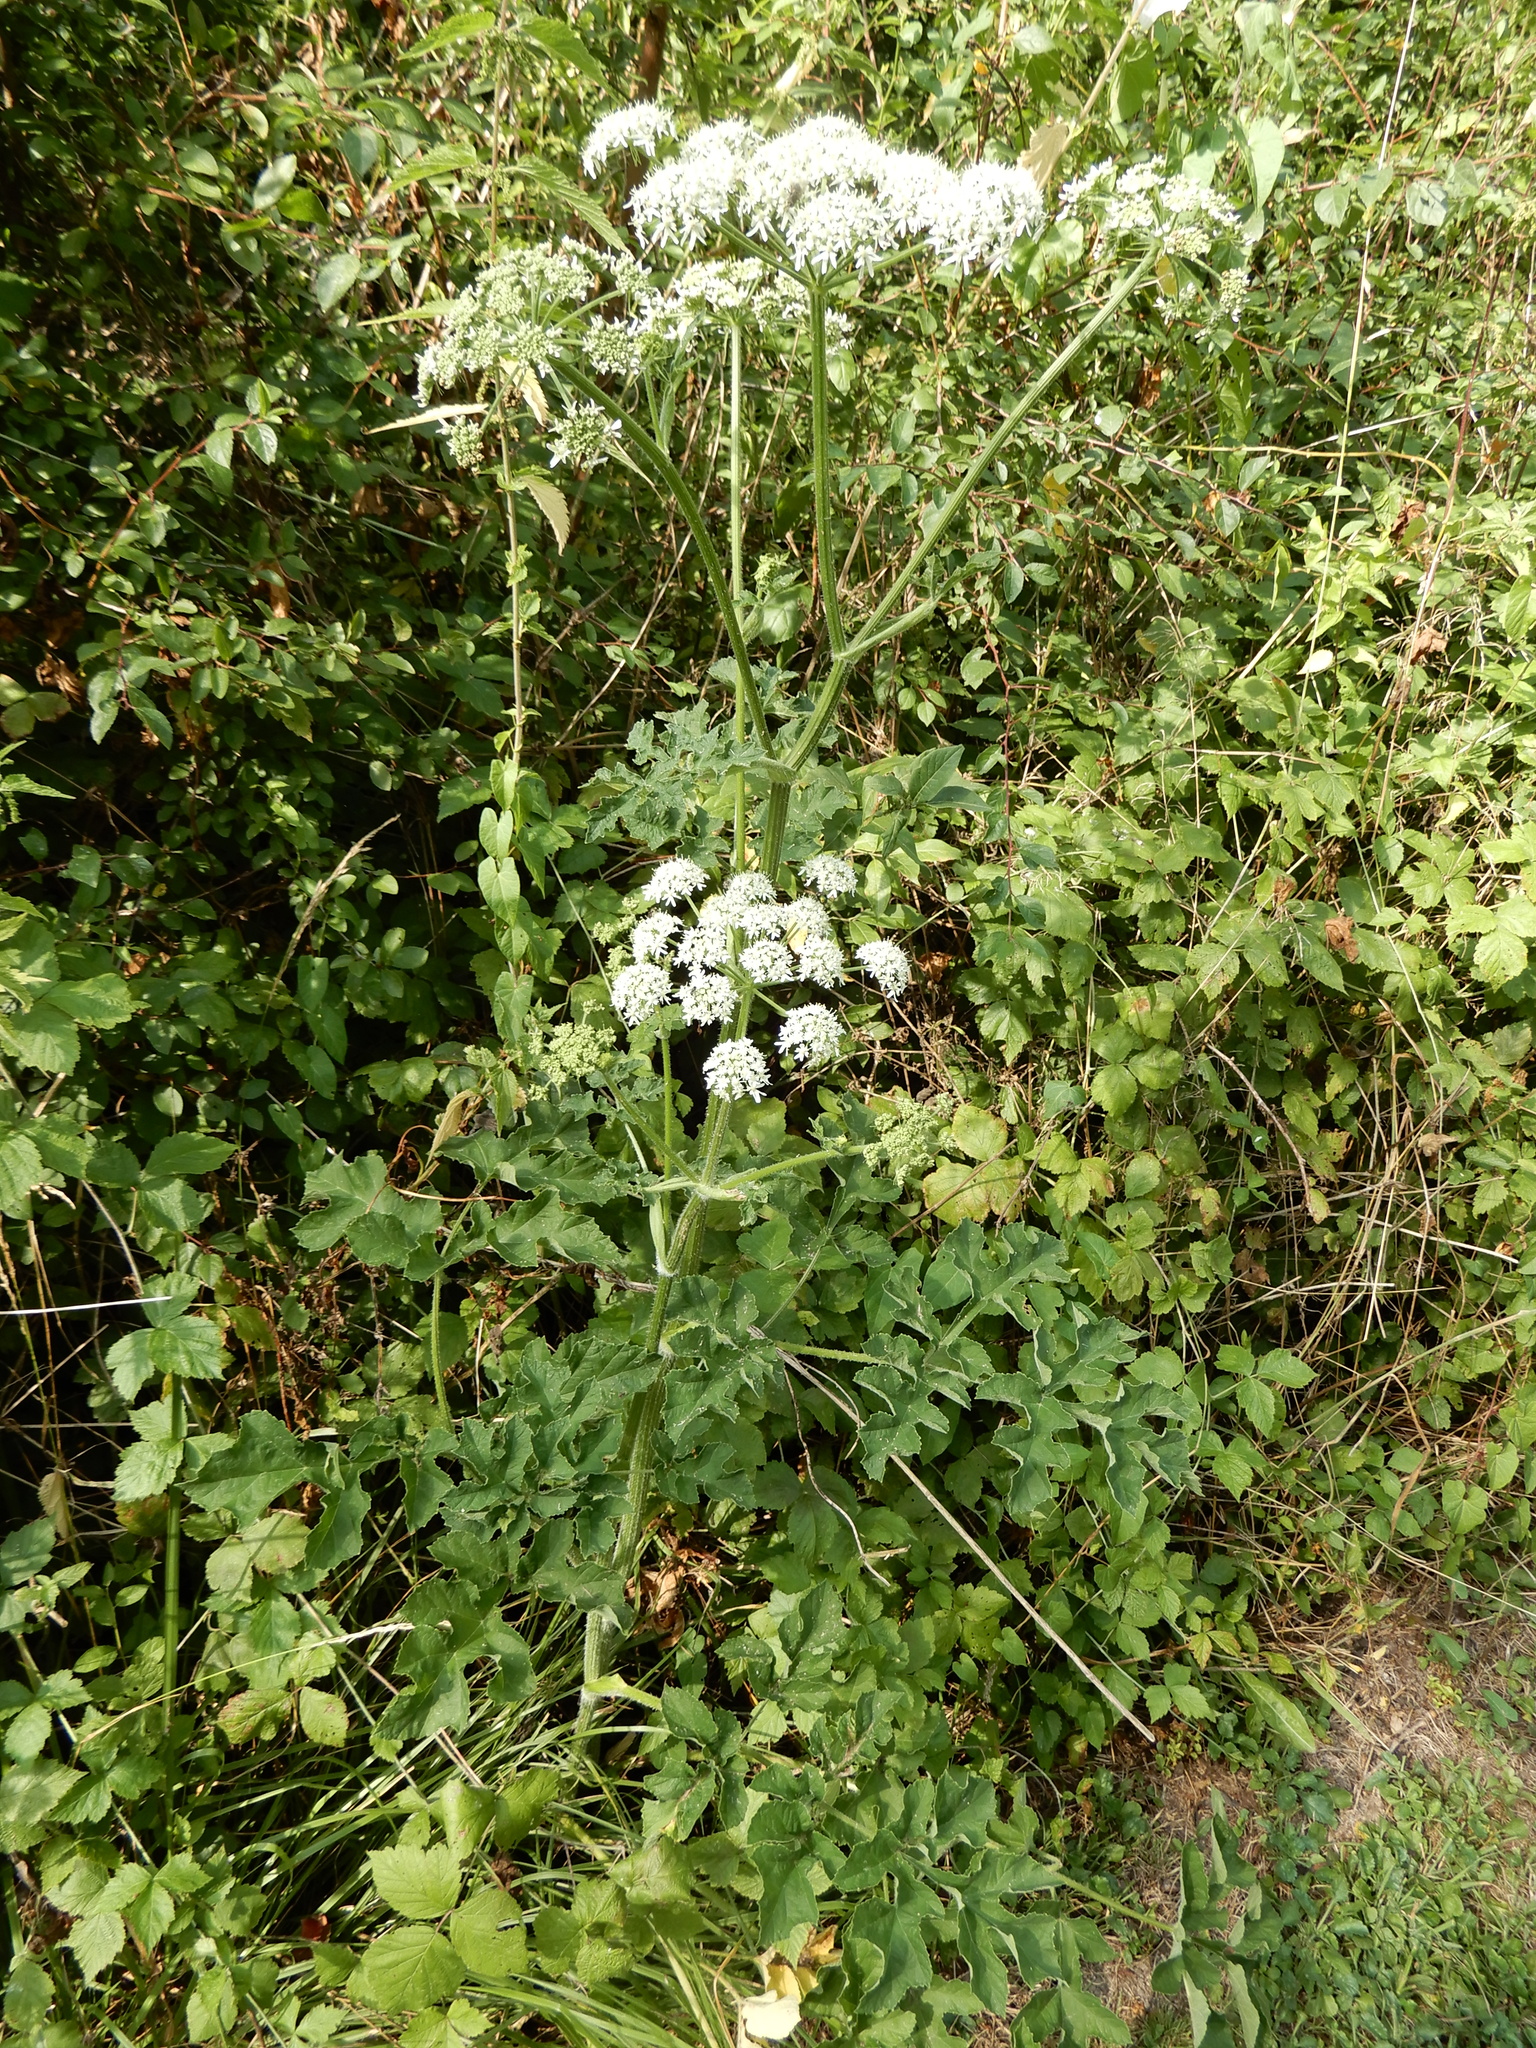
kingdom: Plantae
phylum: Tracheophyta
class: Magnoliopsida
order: Apiales
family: Apiaceae
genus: Heracleum
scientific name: Heracleum sphondylium
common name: Hogweed
